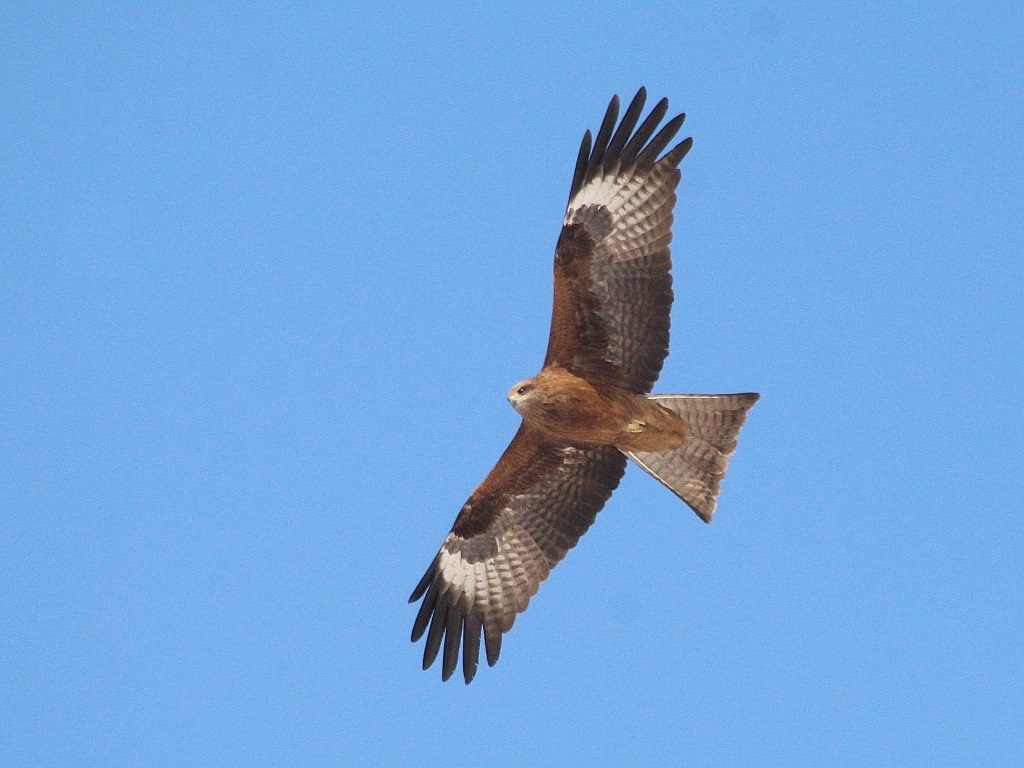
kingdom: Animalia
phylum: Chordata
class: Aves
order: Accipitriformes
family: Accipitridae
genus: Milvus
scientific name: Milvus migrans
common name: Black kite
